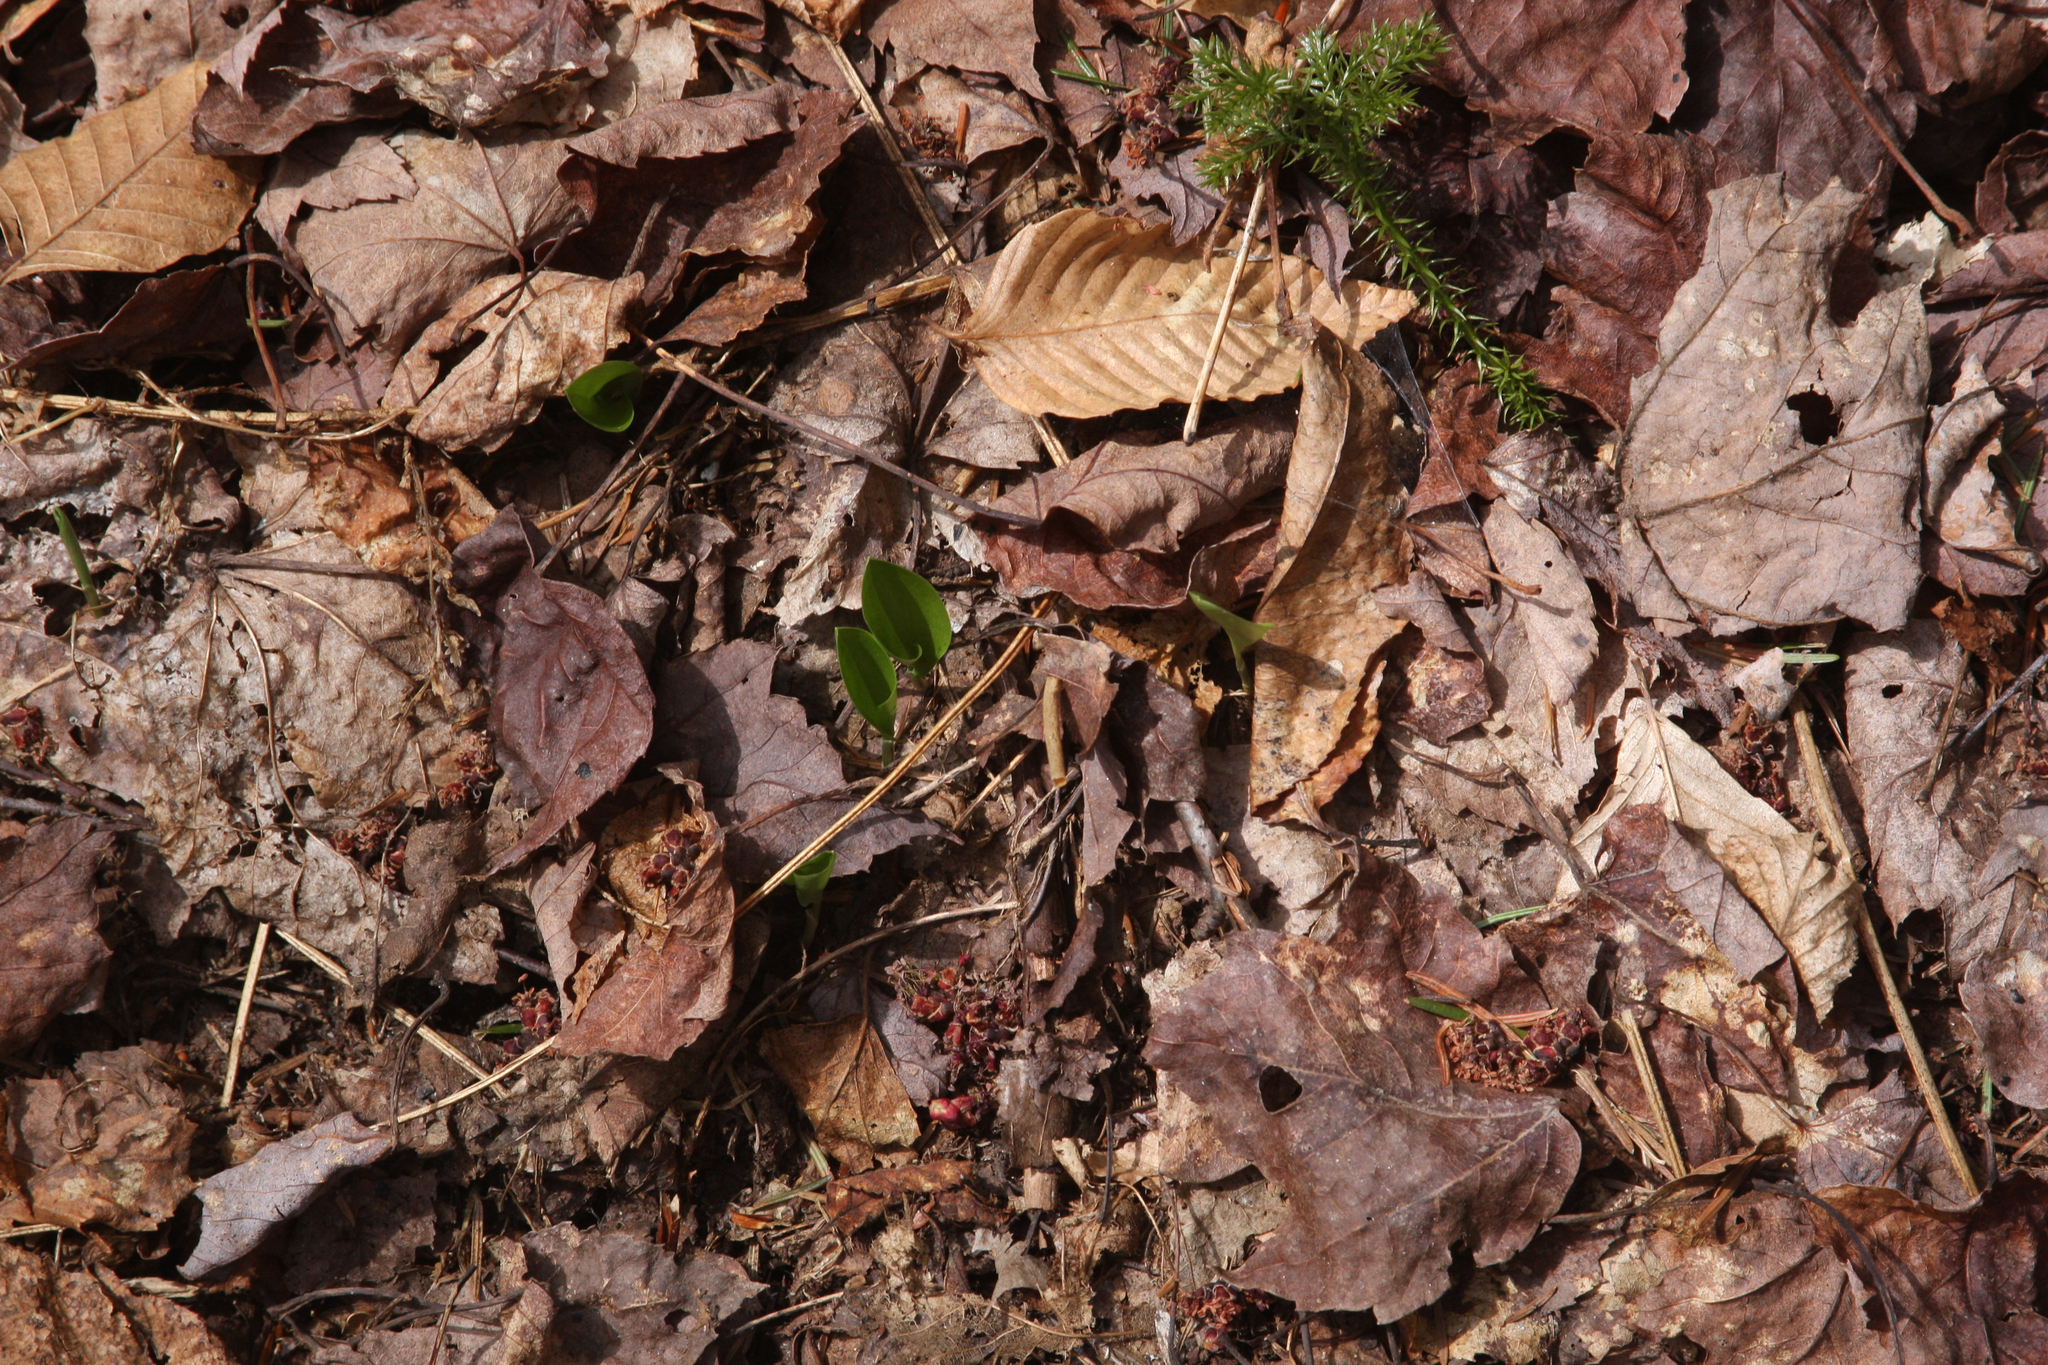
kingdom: Plantae
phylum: Tracheophyta
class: Liliopsida
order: Asparagales
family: Asparagaceae
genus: Maianthemum
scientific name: Maianthemum canadense
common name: False lily-of-the-valley
